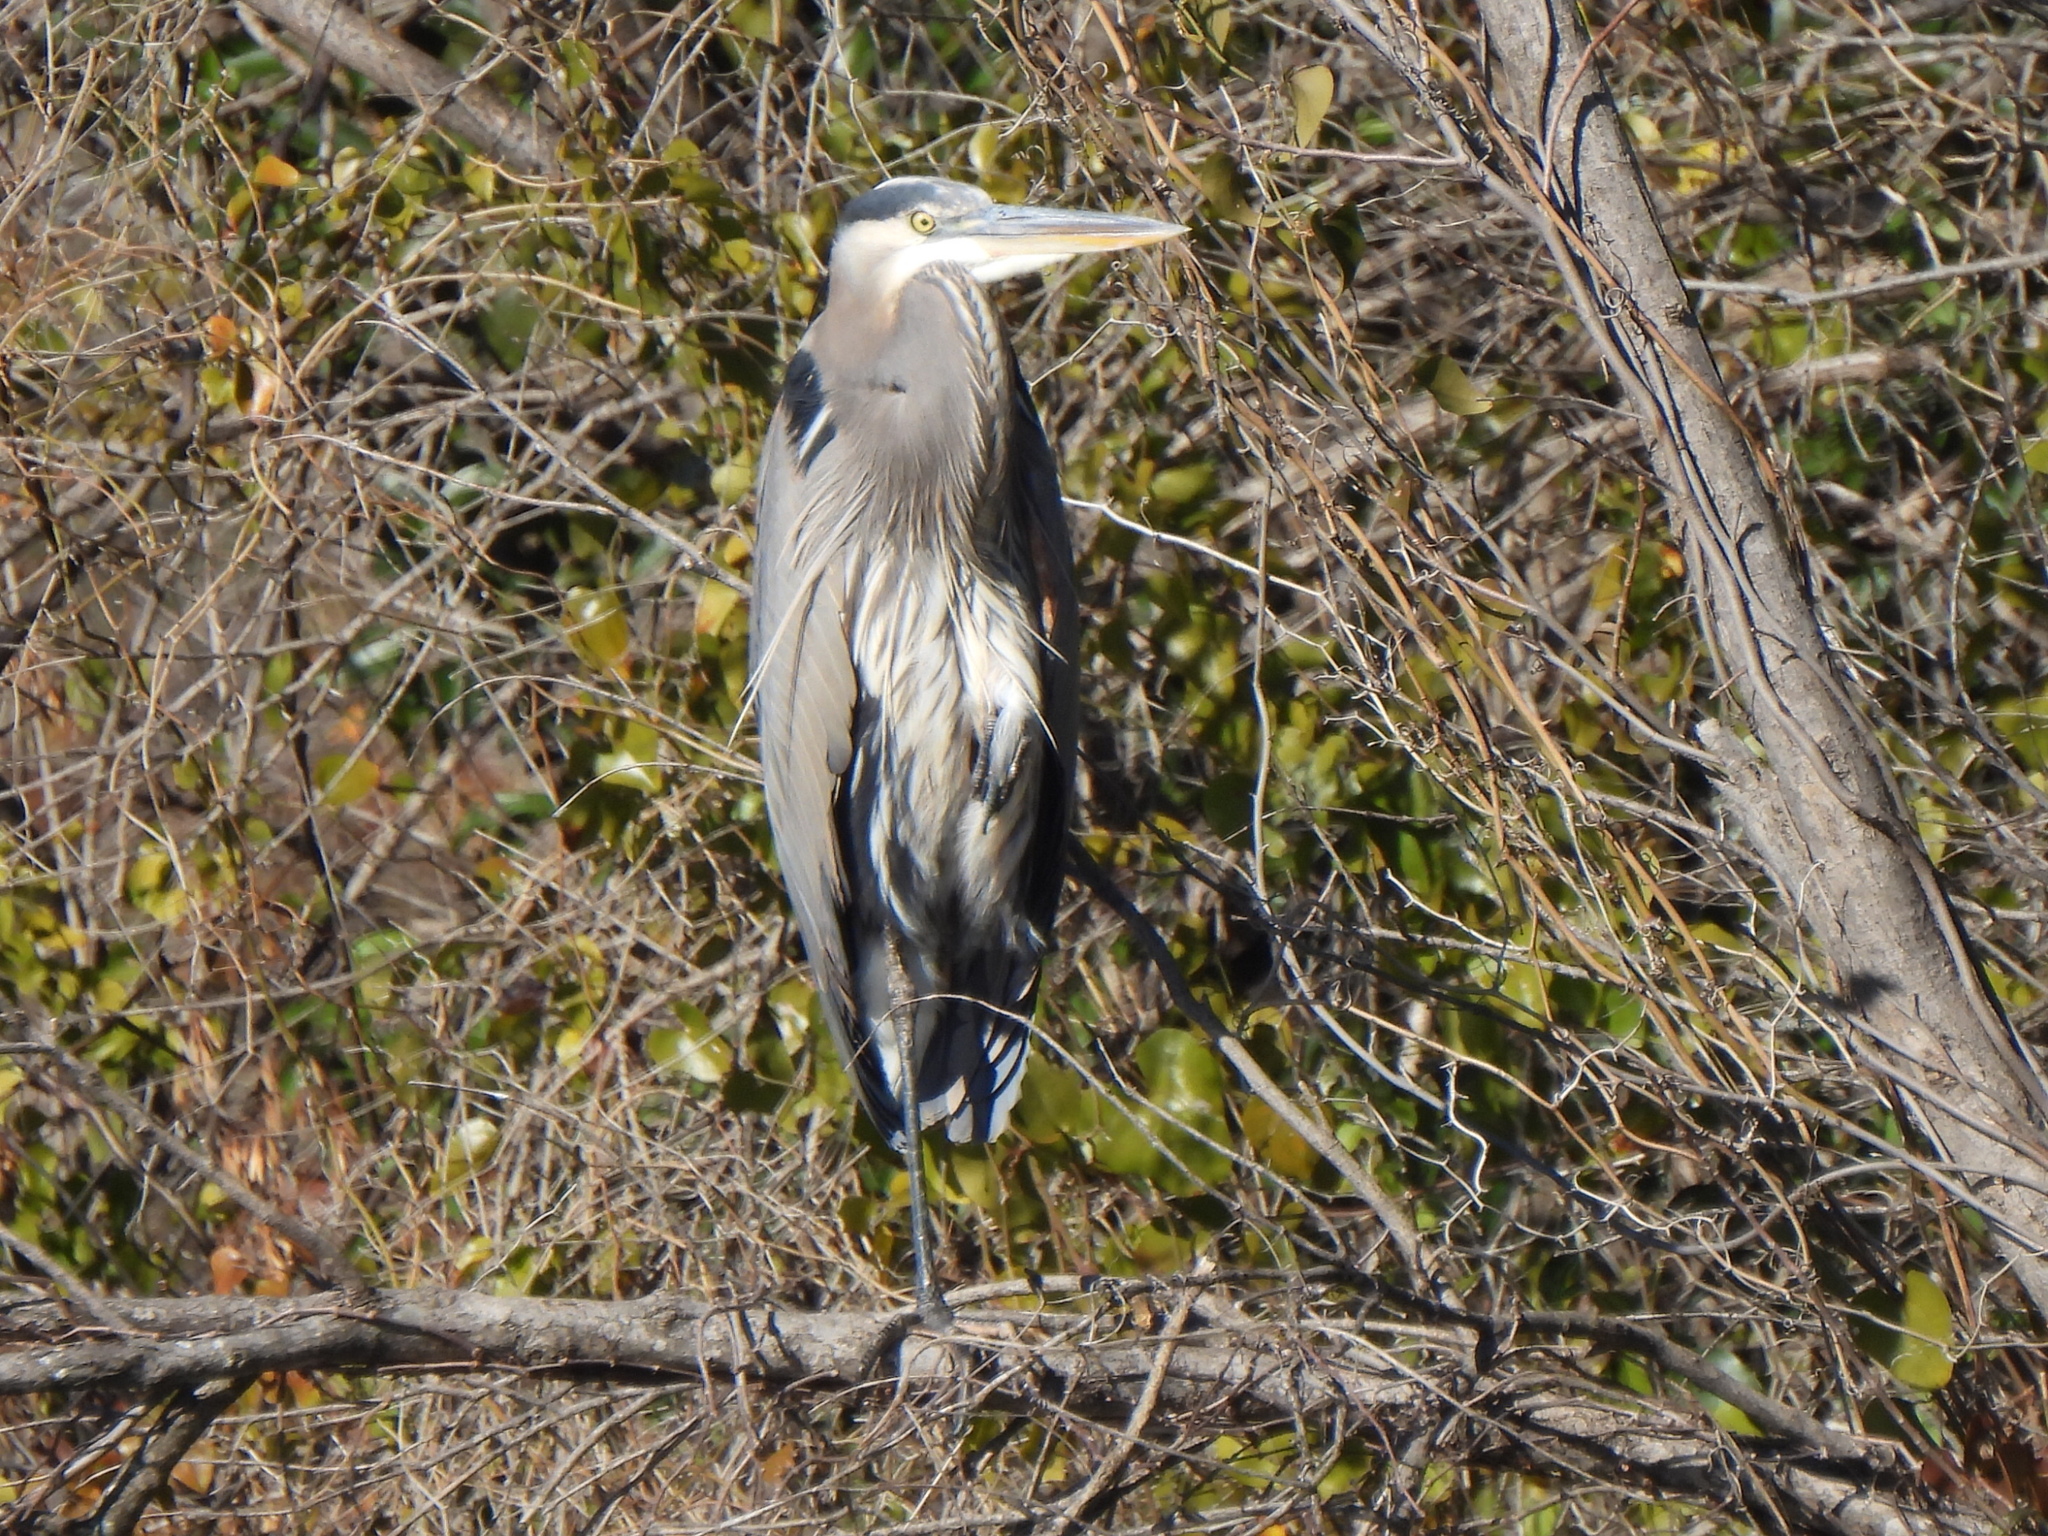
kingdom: Animalia
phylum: Chordata
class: Aves
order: Pelecaniformes
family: Ardeidae
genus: Ardea
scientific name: Ardea herodias
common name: Great blue heron
